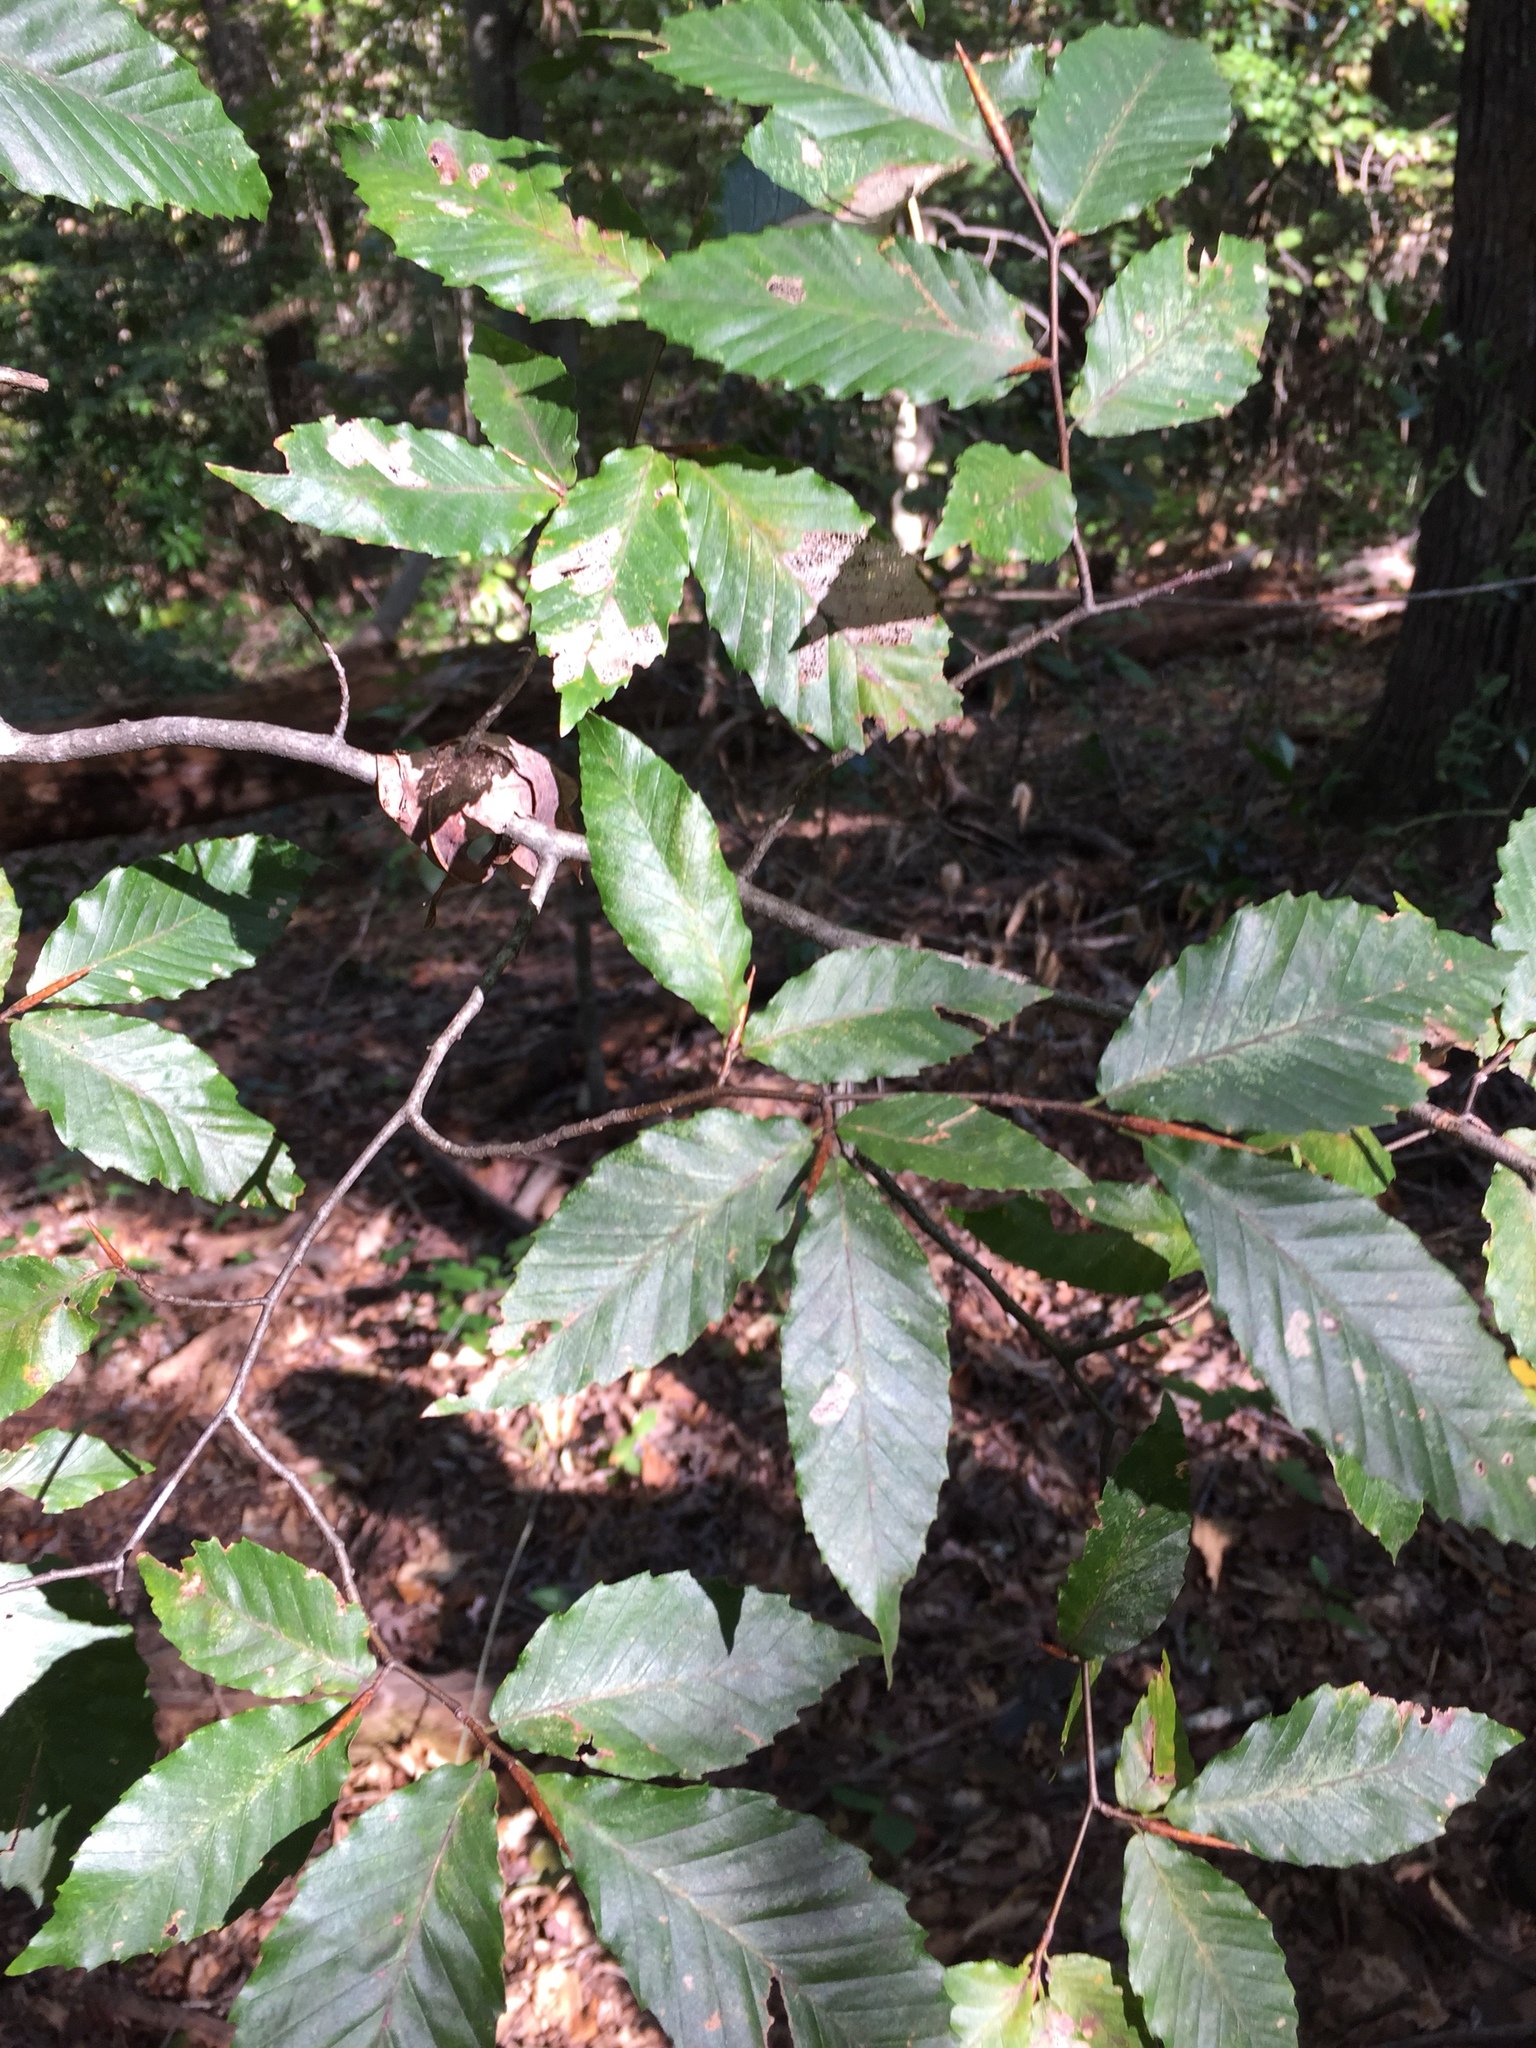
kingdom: Plantae
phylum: Tracheophyta
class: Magnoliopsida
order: Fagales
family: Fagaceae
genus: Fagus
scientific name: Fagus grandifolia
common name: American beech
